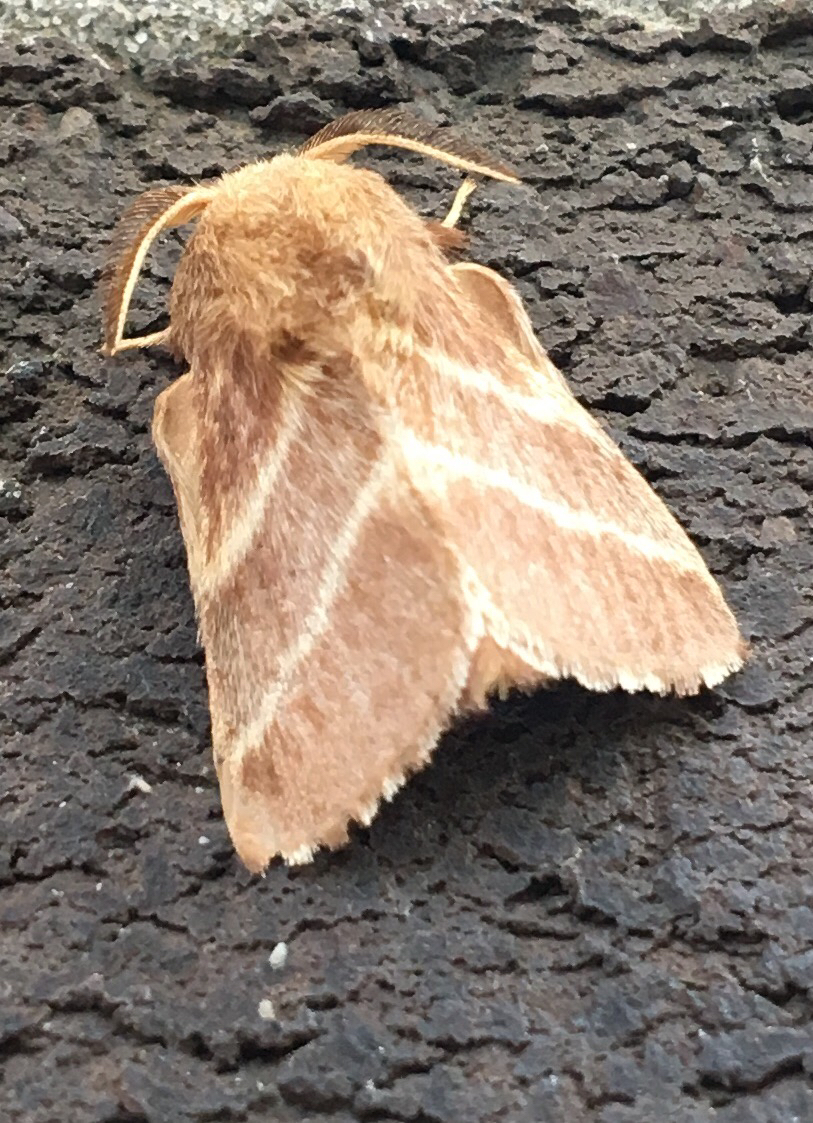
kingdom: Animalia
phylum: Arthropoda
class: Insecta
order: Lepidoptera
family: Lasiocampidae
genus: Malacosoma
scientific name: Malacosoma americana
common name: Eastern tent caterpillar moth
